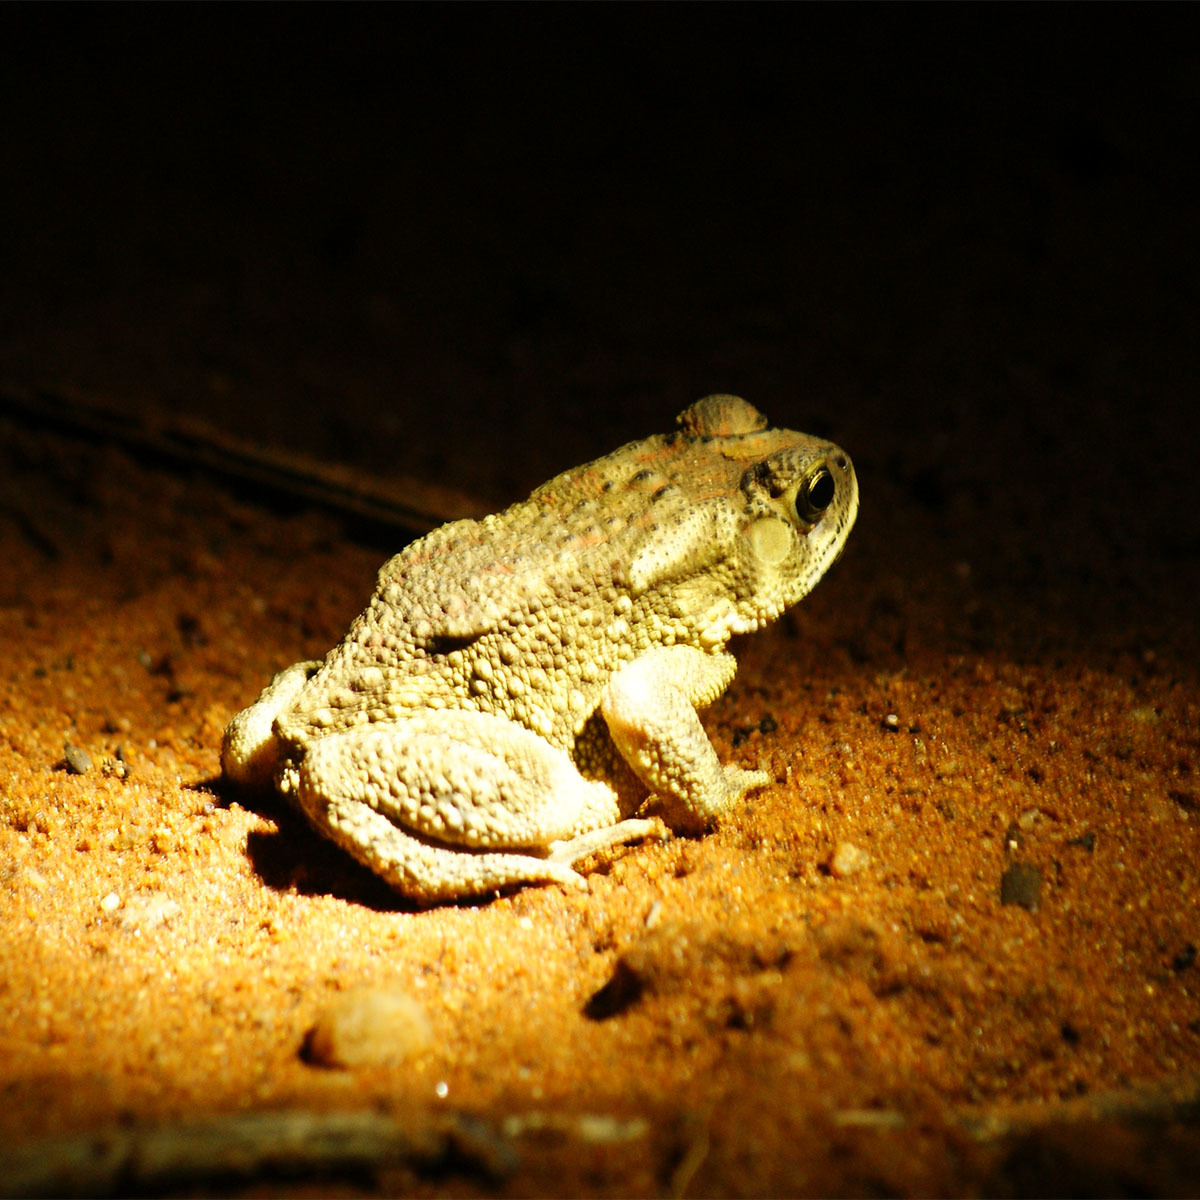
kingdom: Animalia
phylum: Chordata
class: Amphibia
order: Anura
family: Bufonidae
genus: Duttaphrynus
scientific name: Duttaphrynus melanostictus
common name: Common sunda toad
